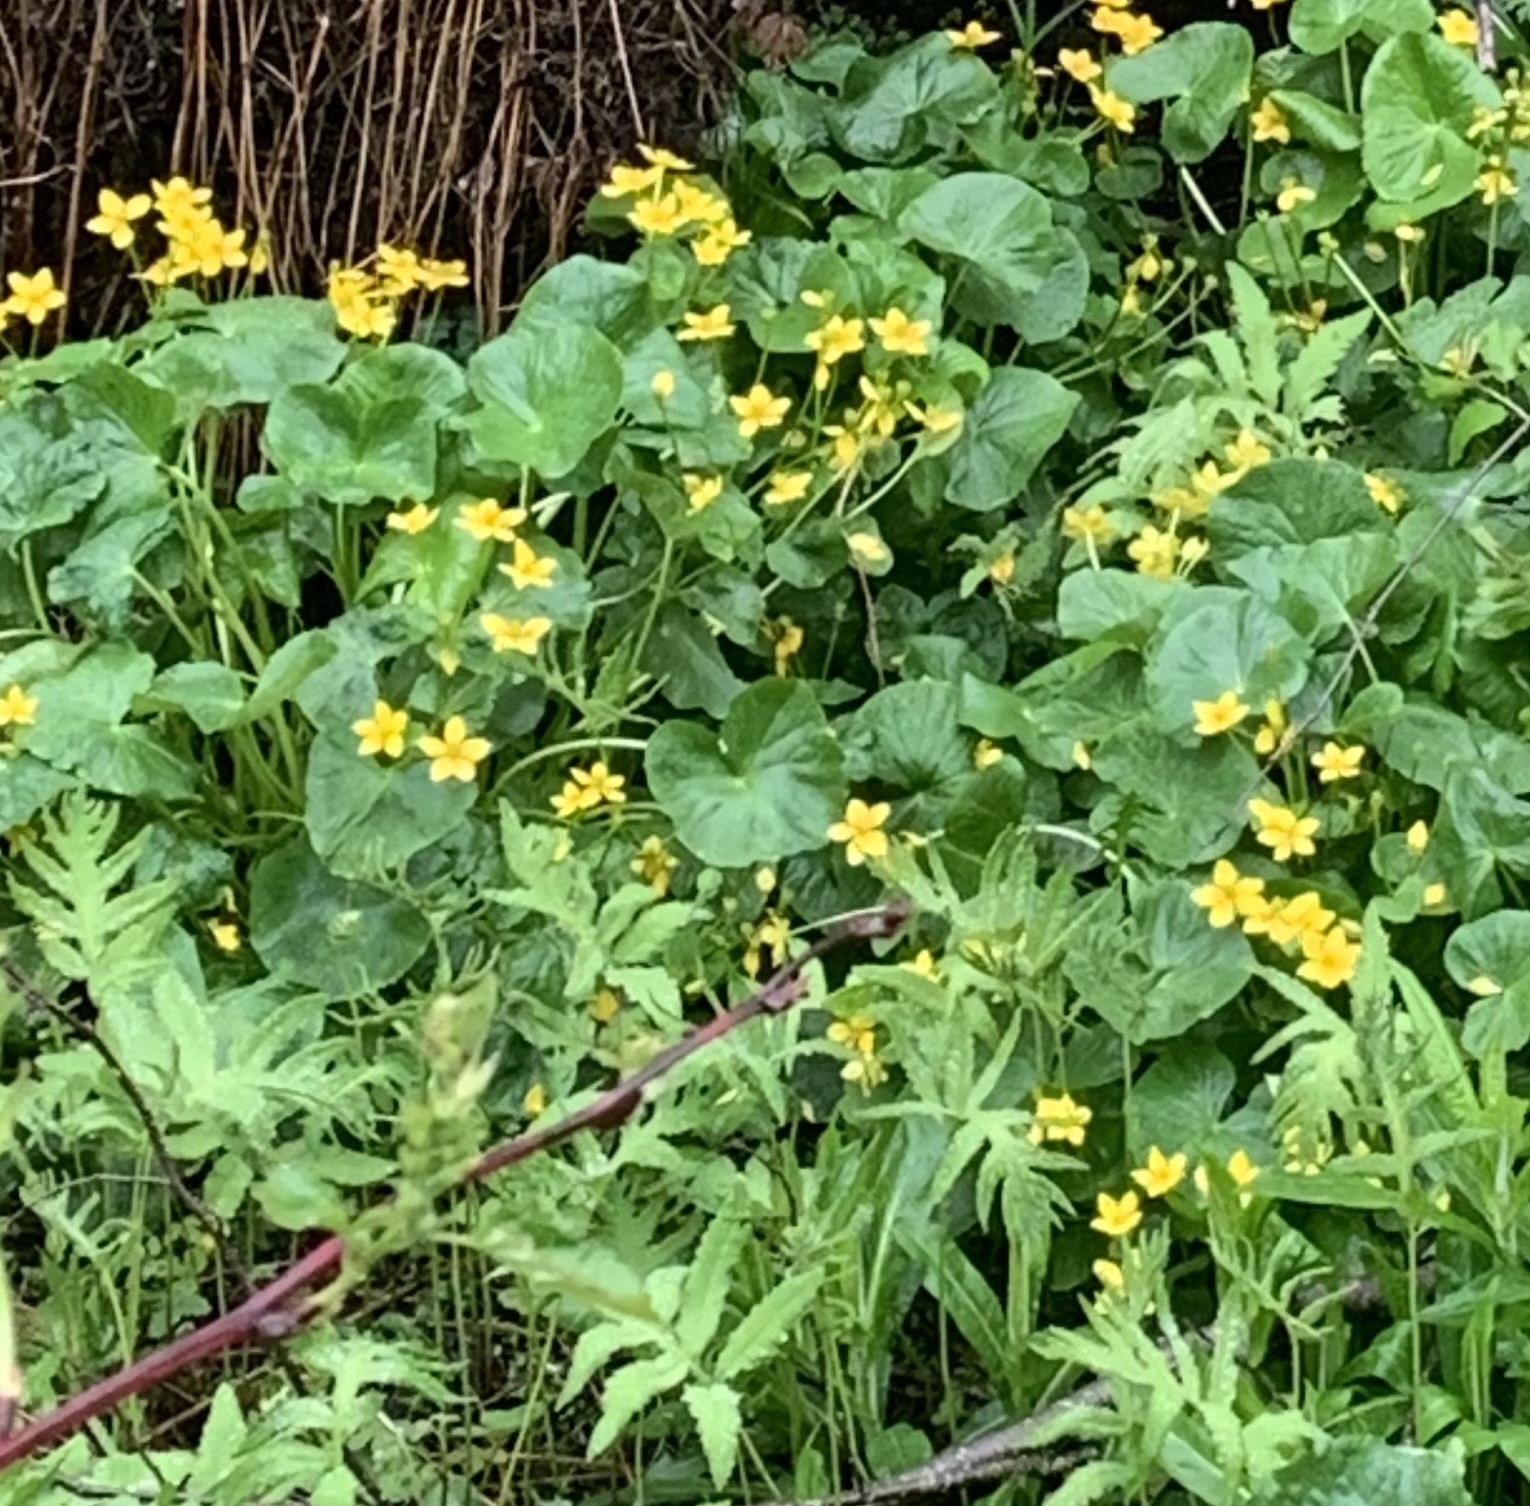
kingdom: Plantae
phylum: Tracheophyta
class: Magnoliopsida
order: Ranunculales
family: Ranunculaceae
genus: Caltha
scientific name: Caltha palustris
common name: Marsh marigold
